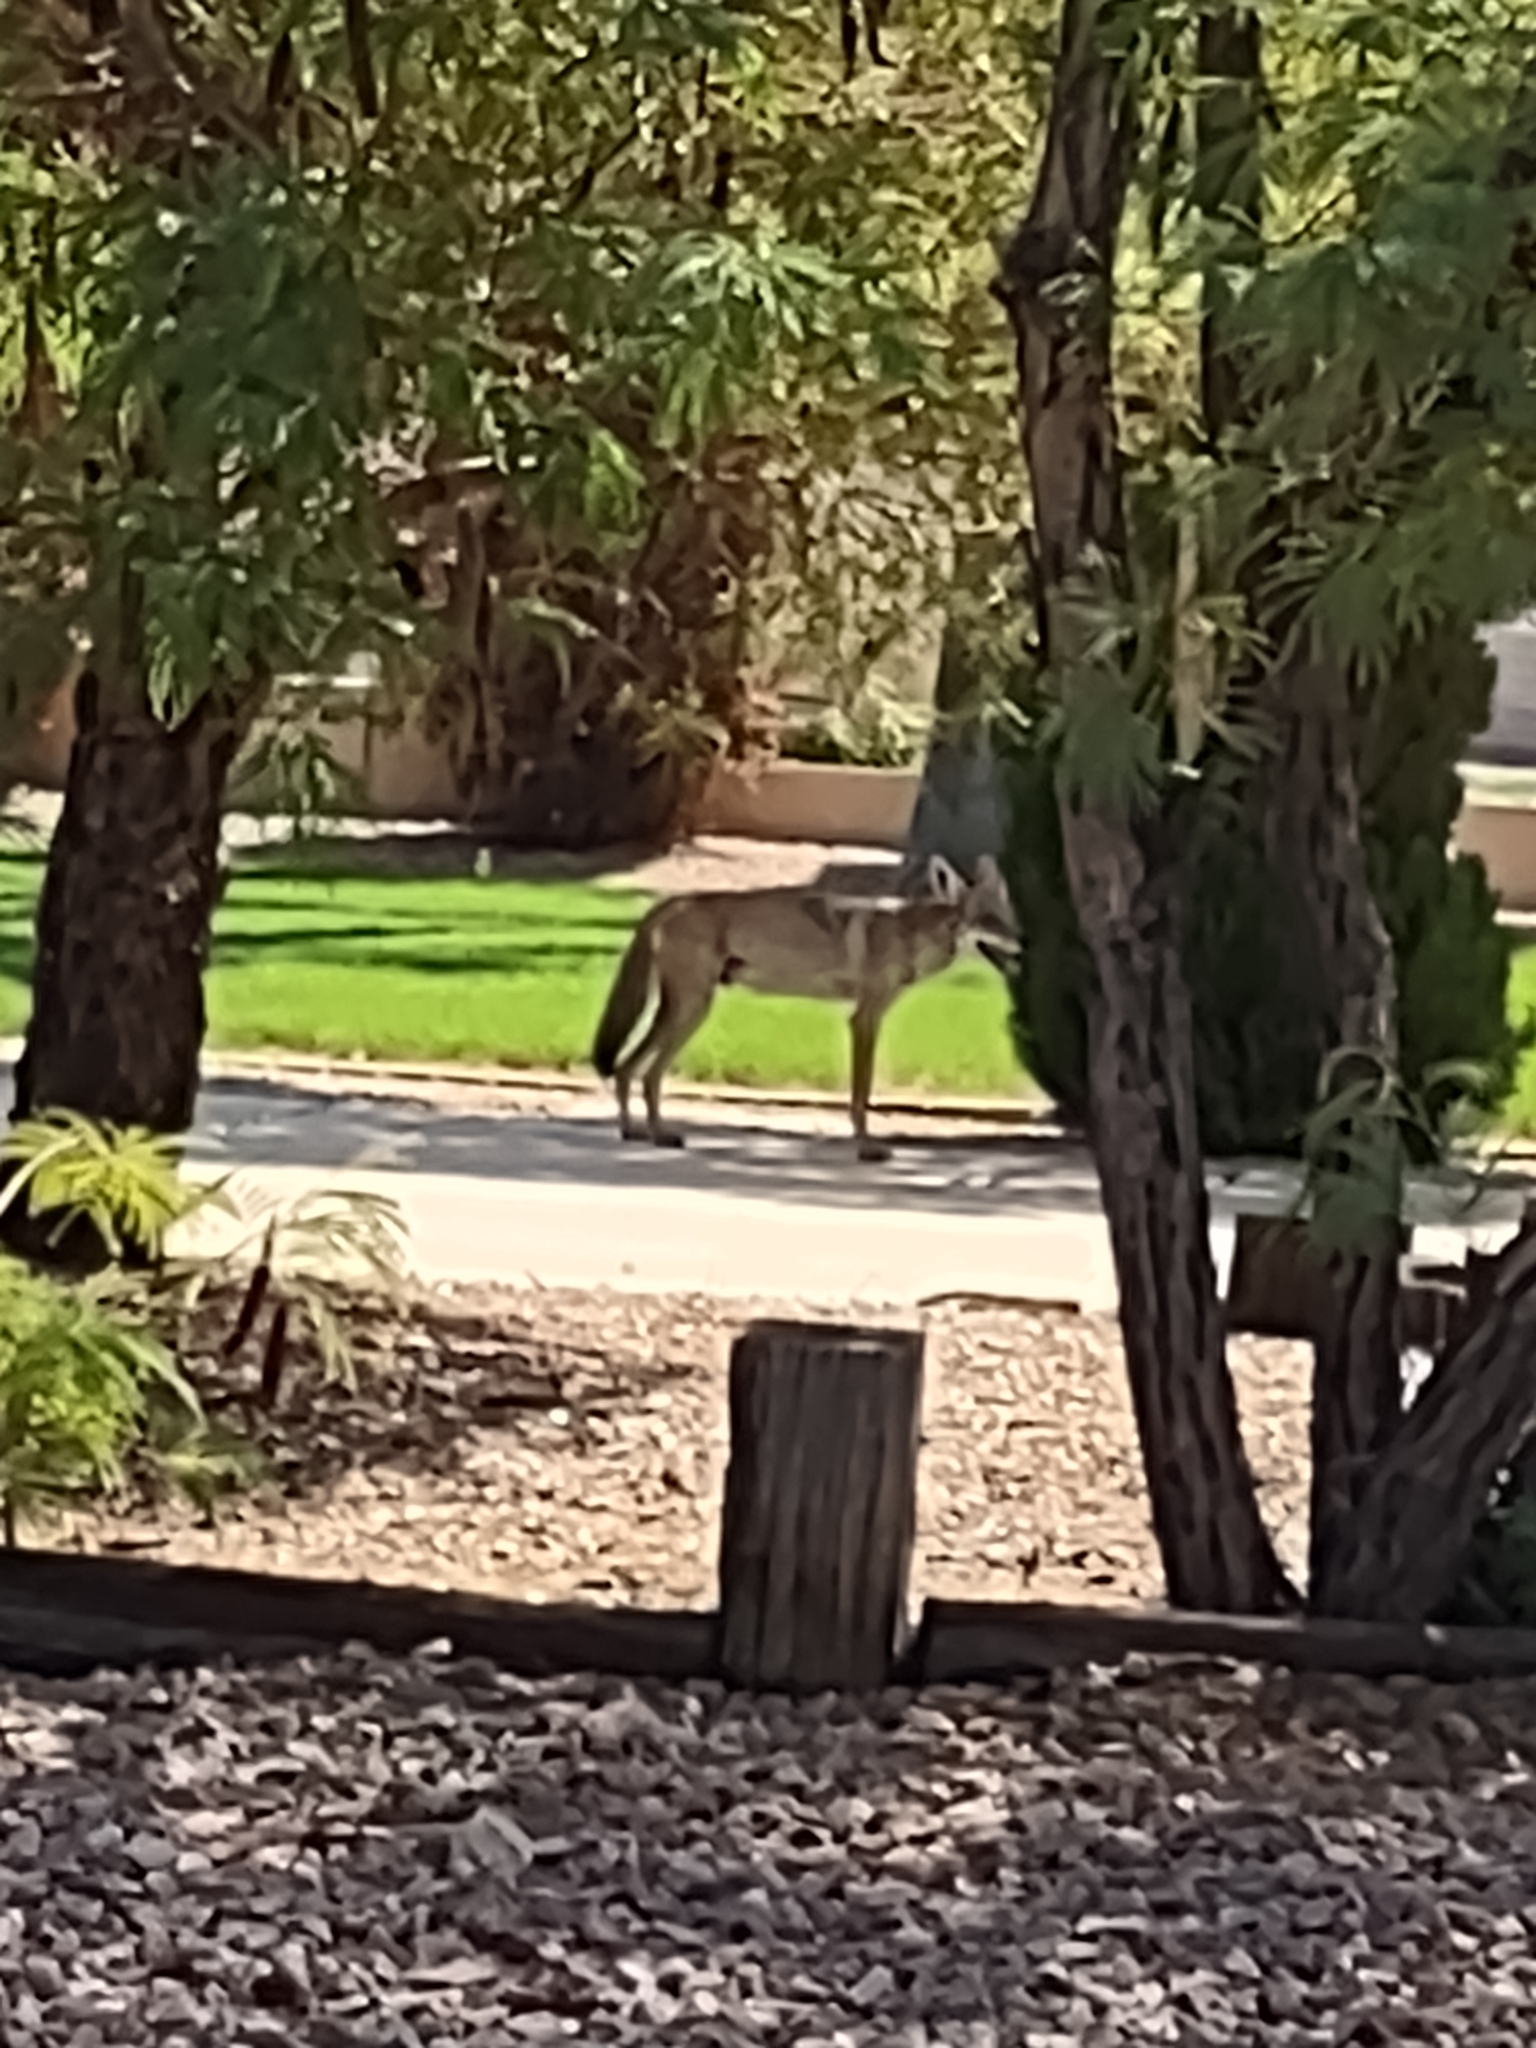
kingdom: Animalia
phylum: Chordata
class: Mammalia
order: Carnivora
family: Canidae
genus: Canis
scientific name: Canis latrans
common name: Coyote
